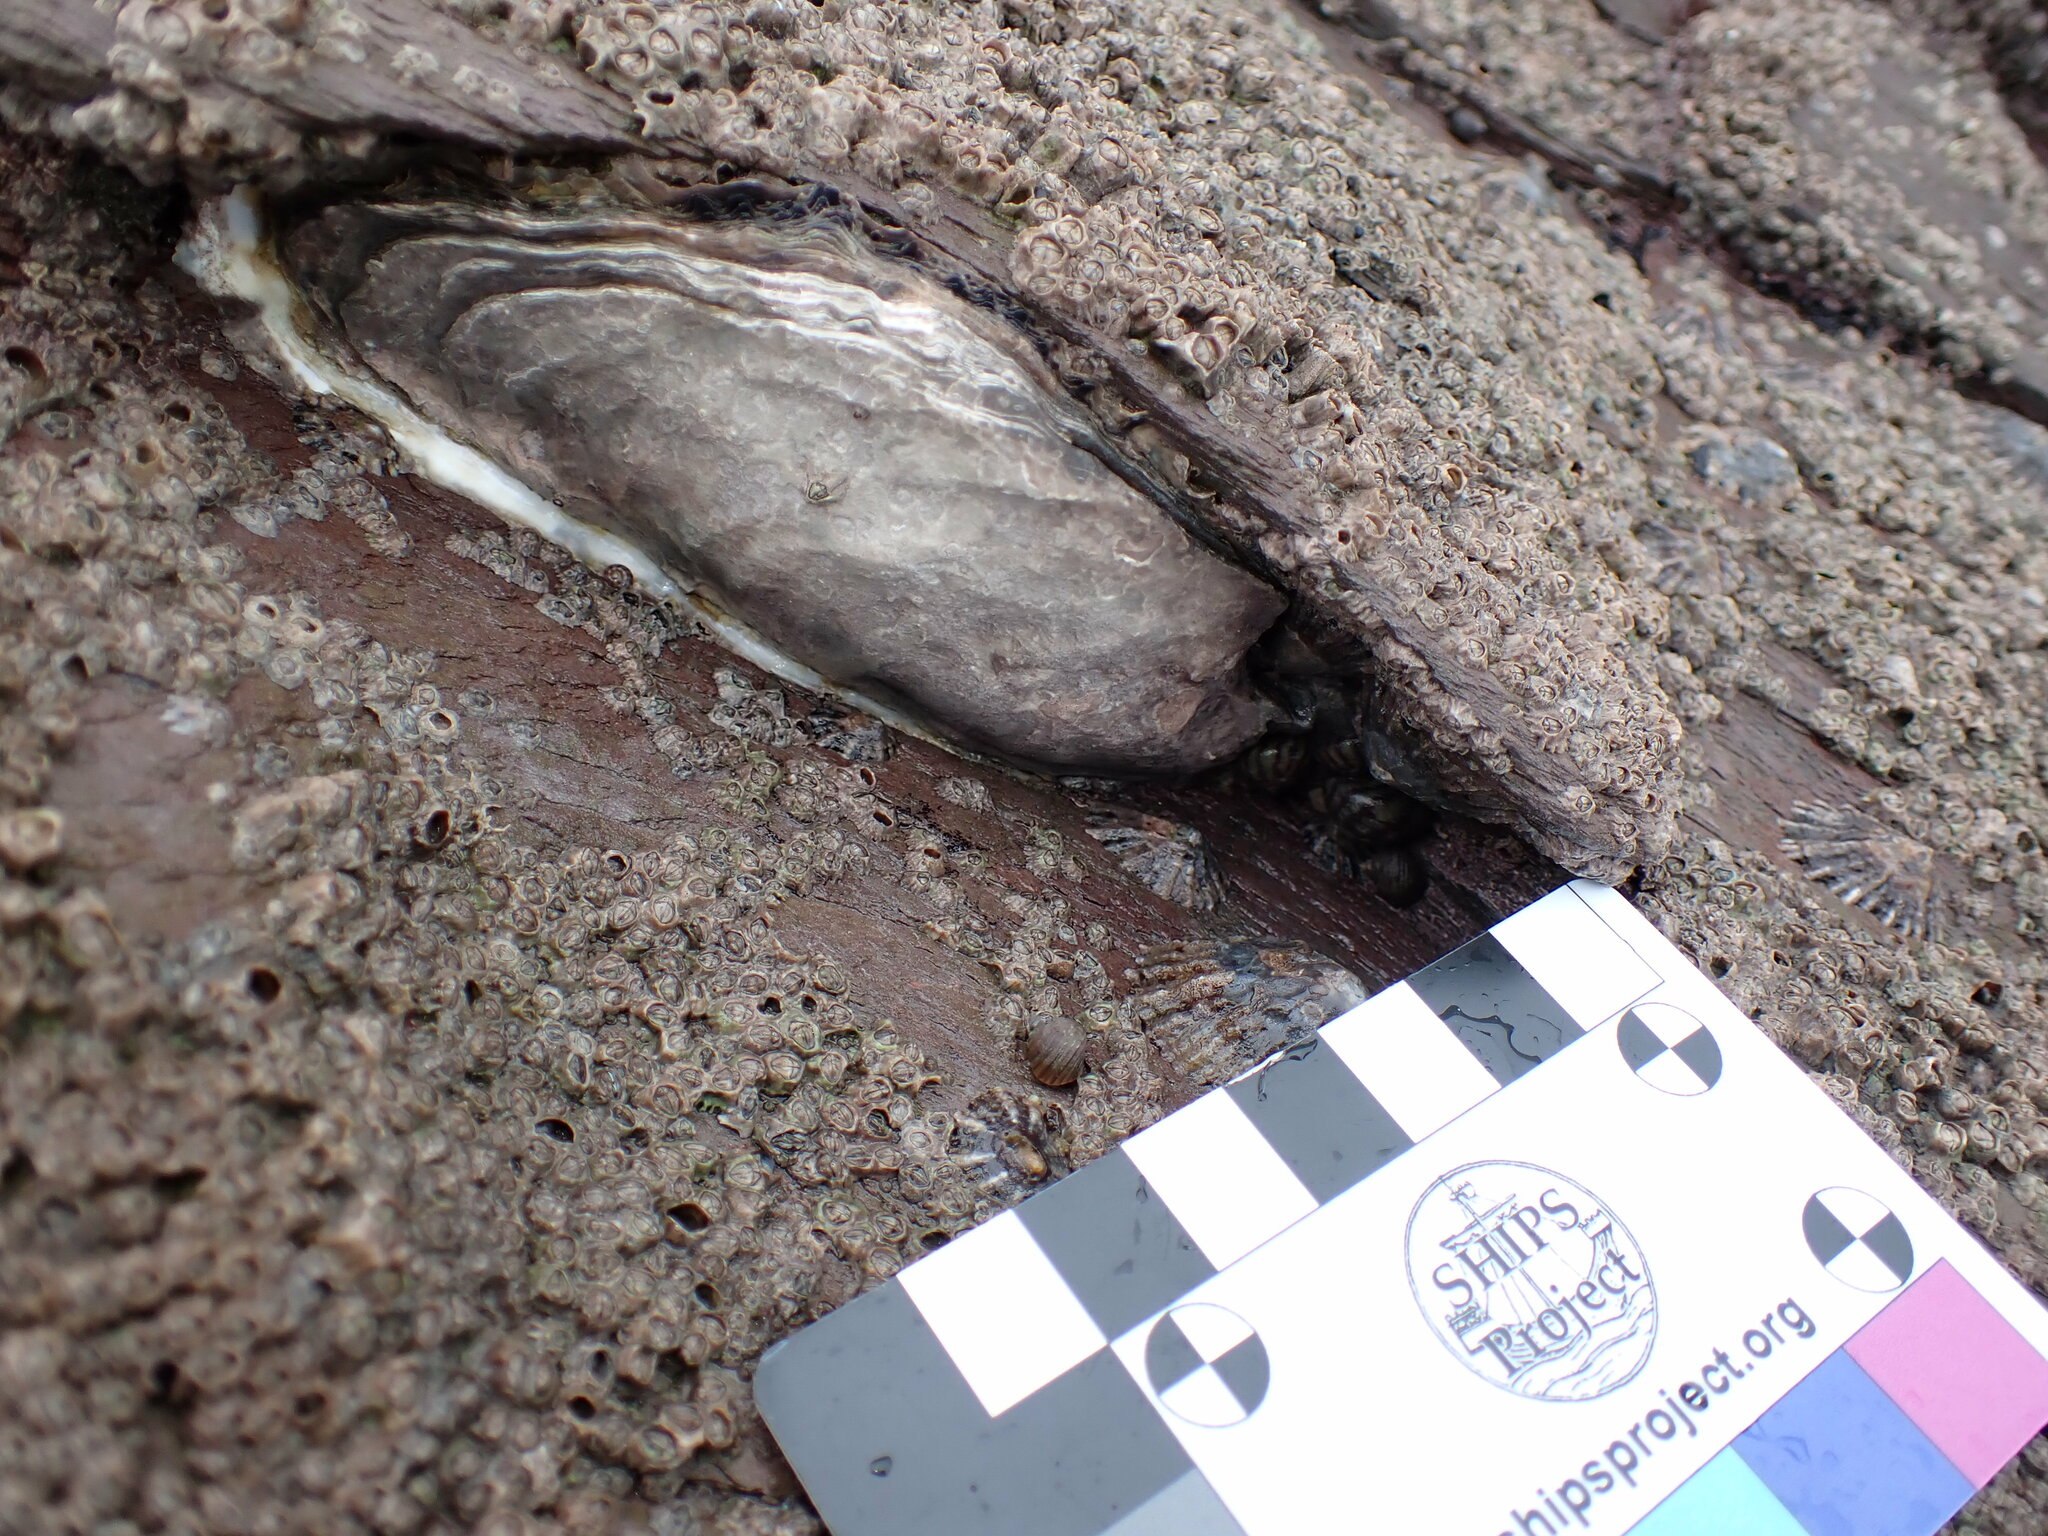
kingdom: Animalia
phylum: Mollusca
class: Bivalvia
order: Ostreida
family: Ostreidae
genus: Magallana
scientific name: Magallana gigas
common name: Pacific oyster
